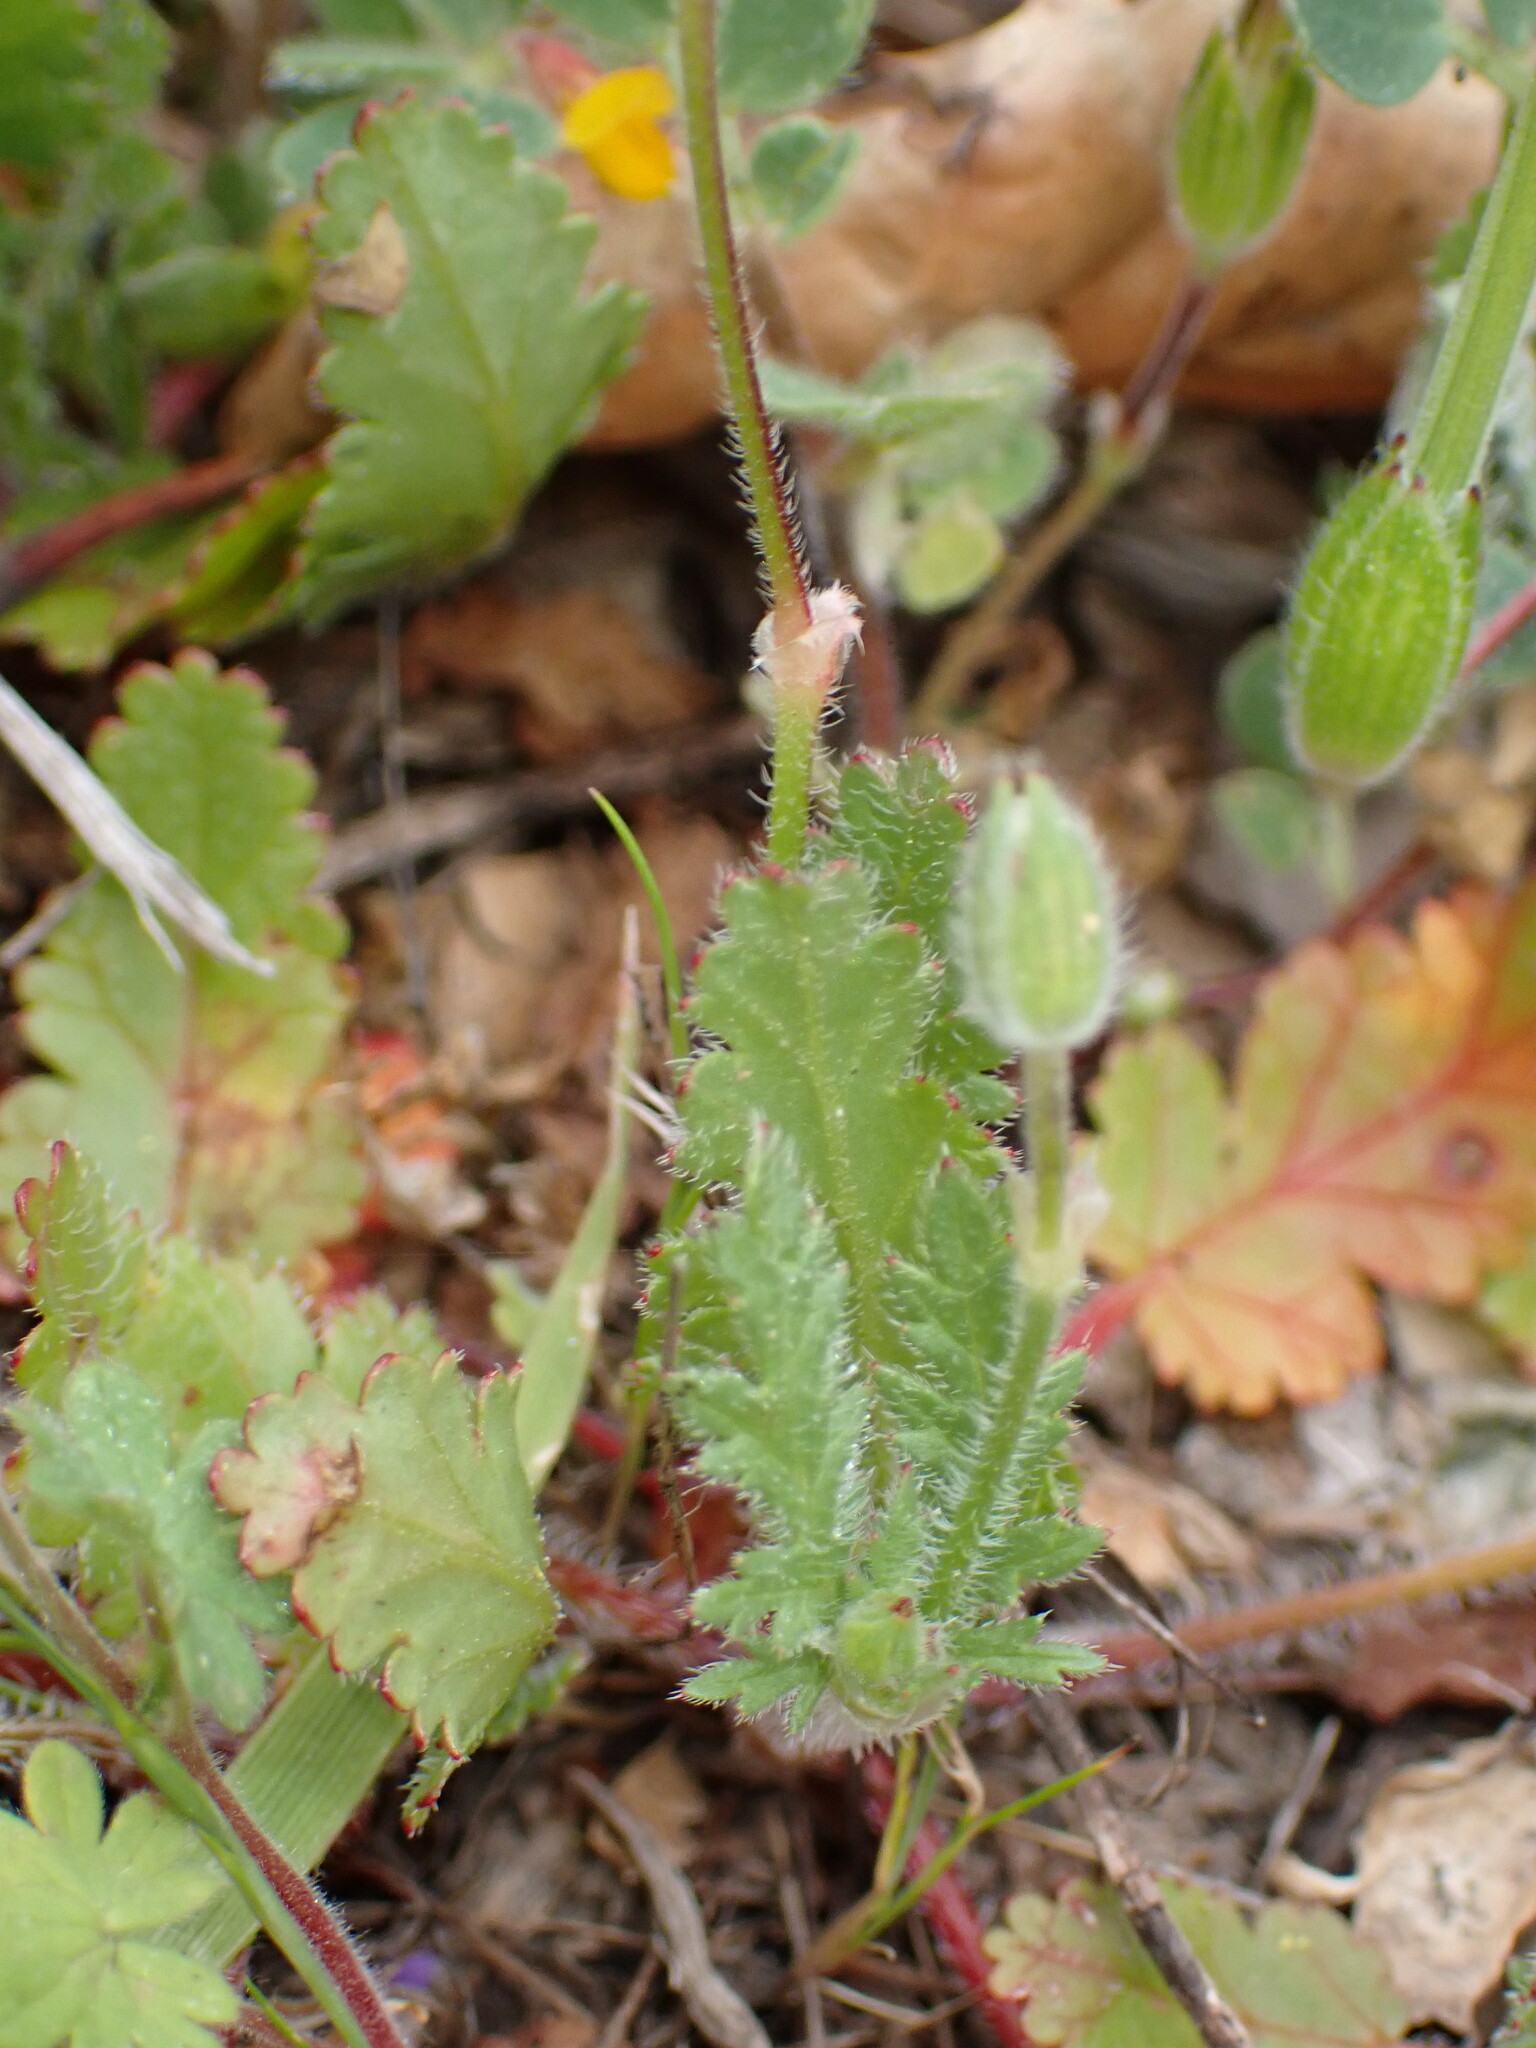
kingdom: Plantae
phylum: Tracheophyta
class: Magnoliopsida
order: Geraniales
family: Geraniaceae
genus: Erodium
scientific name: Erodium botrys
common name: Mediterranean stork's-bill
